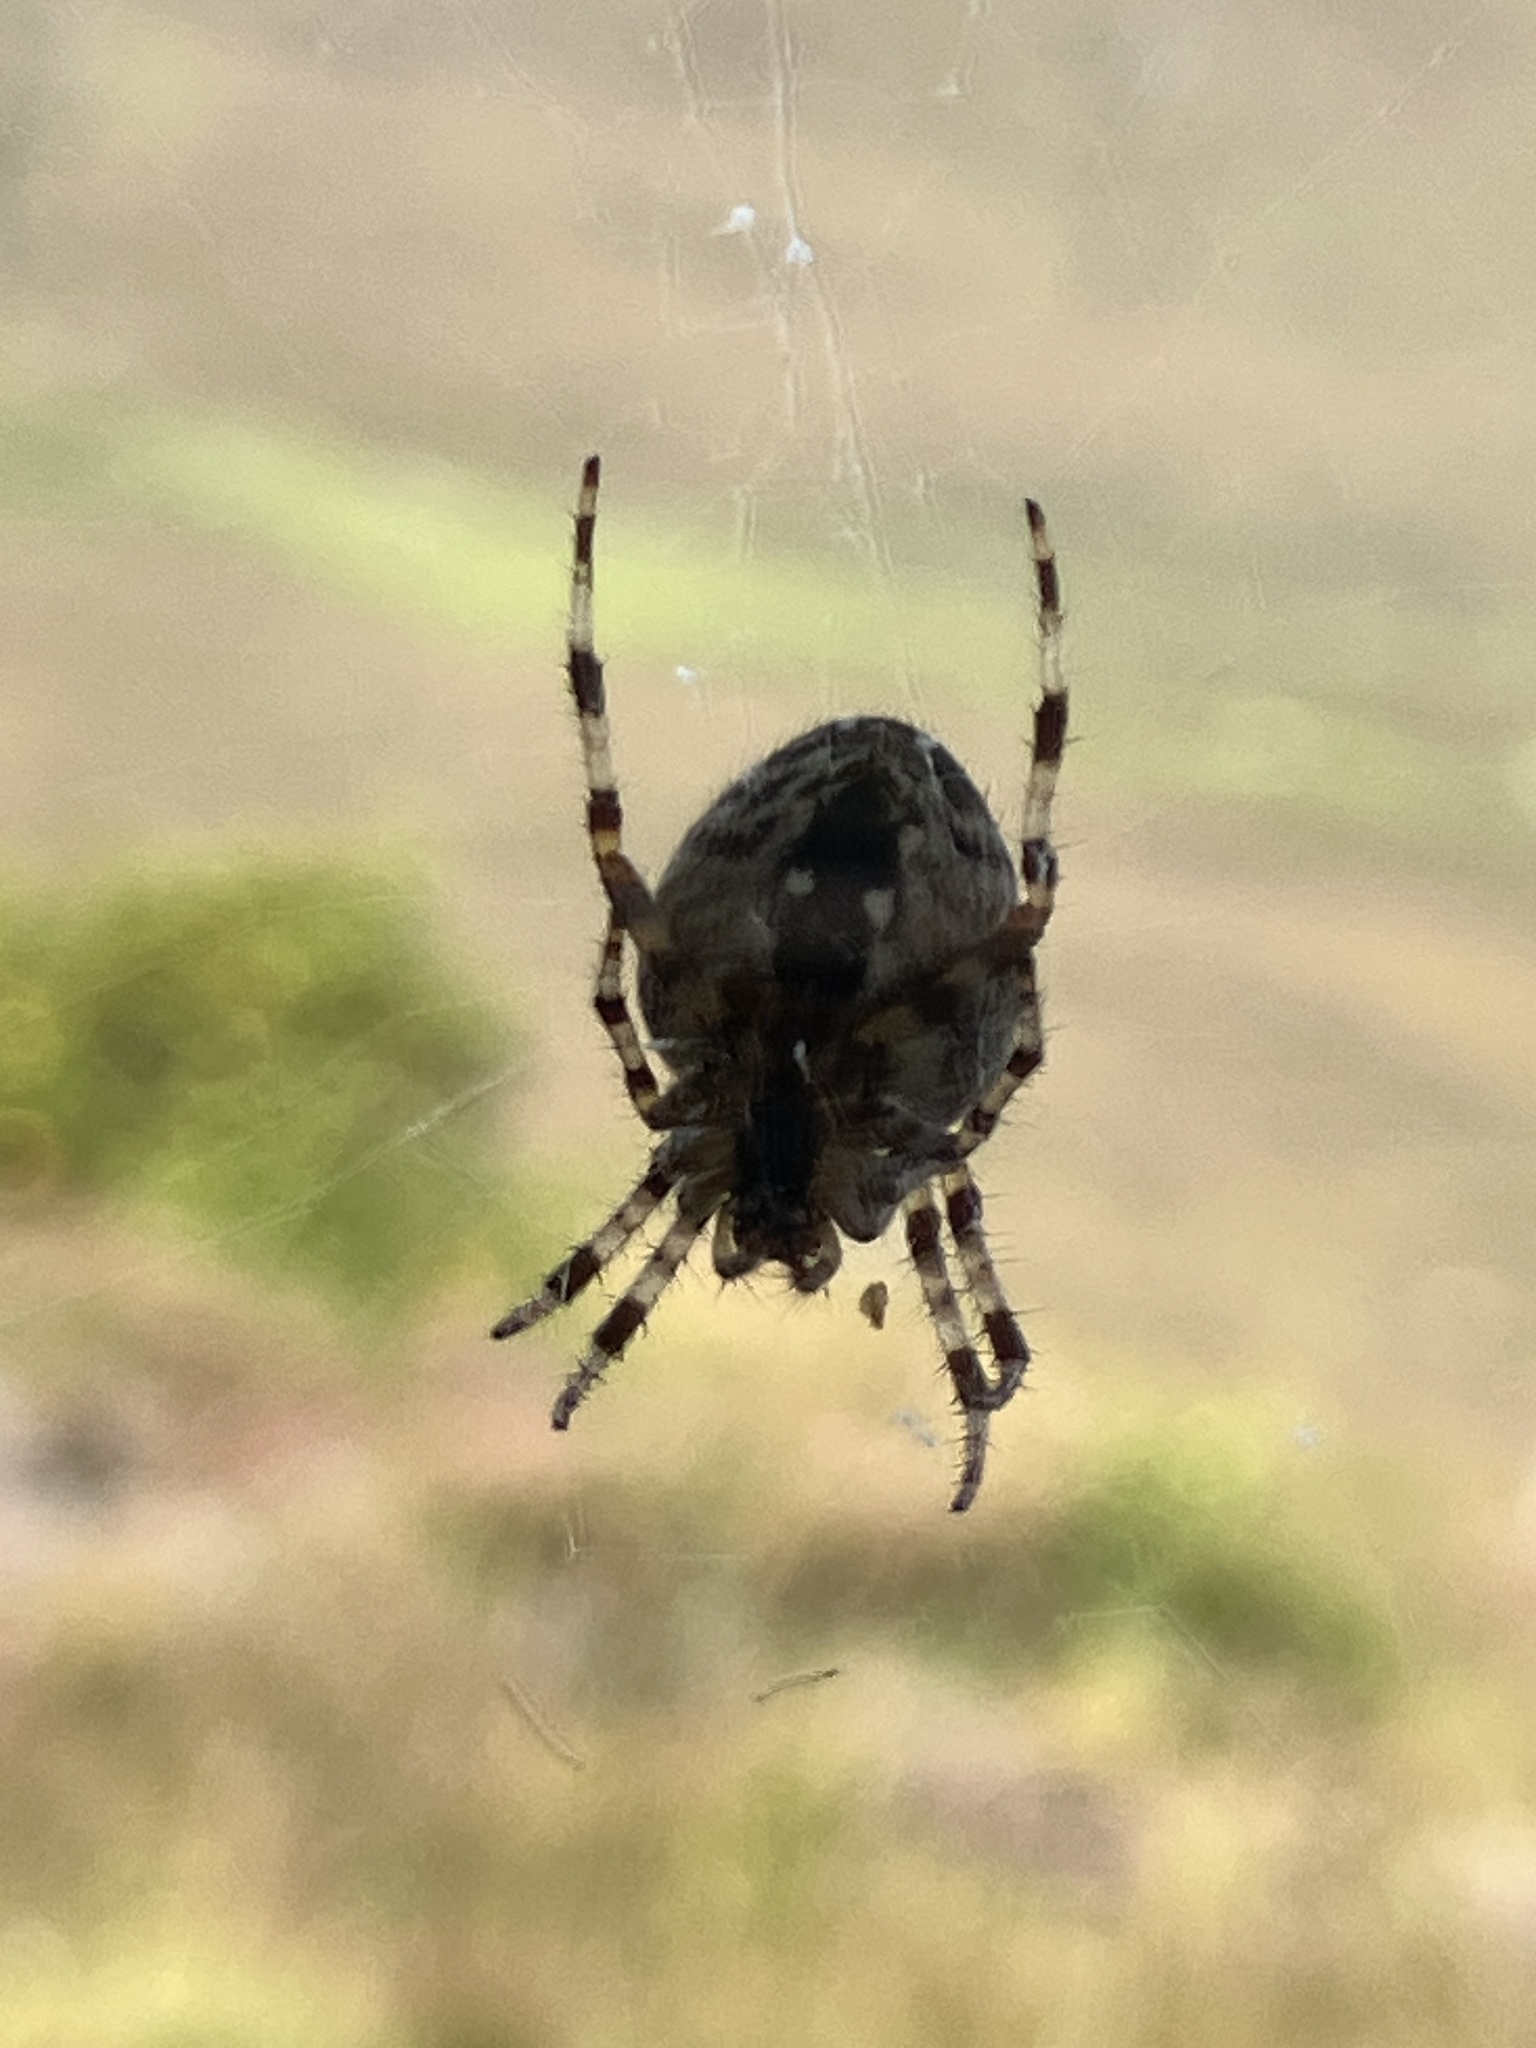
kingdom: Animalia
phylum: Arthropoda
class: Arachnida
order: Araneae
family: Araneidae
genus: Araneus
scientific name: Araneus diadematus
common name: Cross orbweaver
